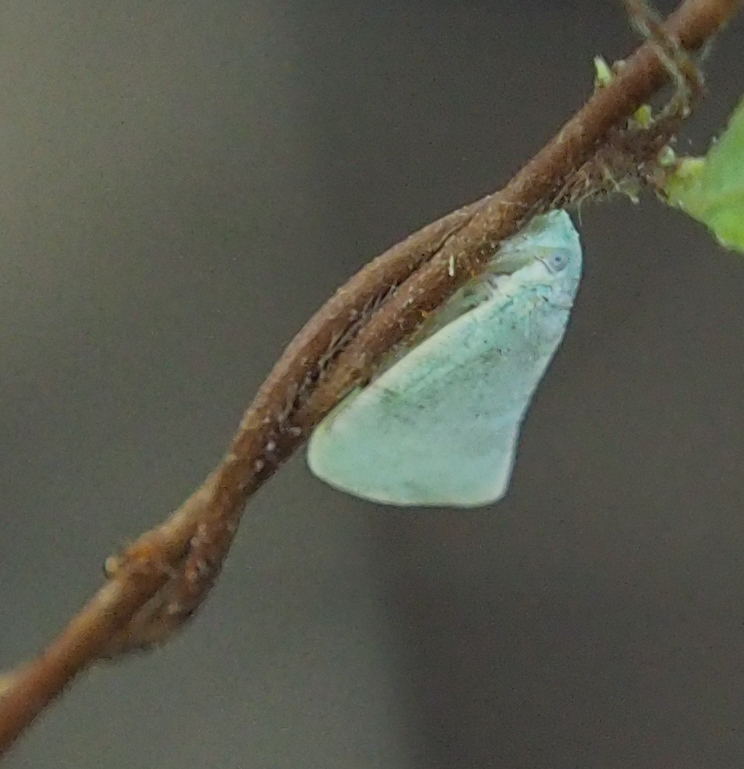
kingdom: Animalia
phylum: Arthropoda
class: Insecta
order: Hemiptera
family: Flatidae
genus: Flatormenis
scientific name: Flatormenis proxima
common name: Northern flatid planthopper
